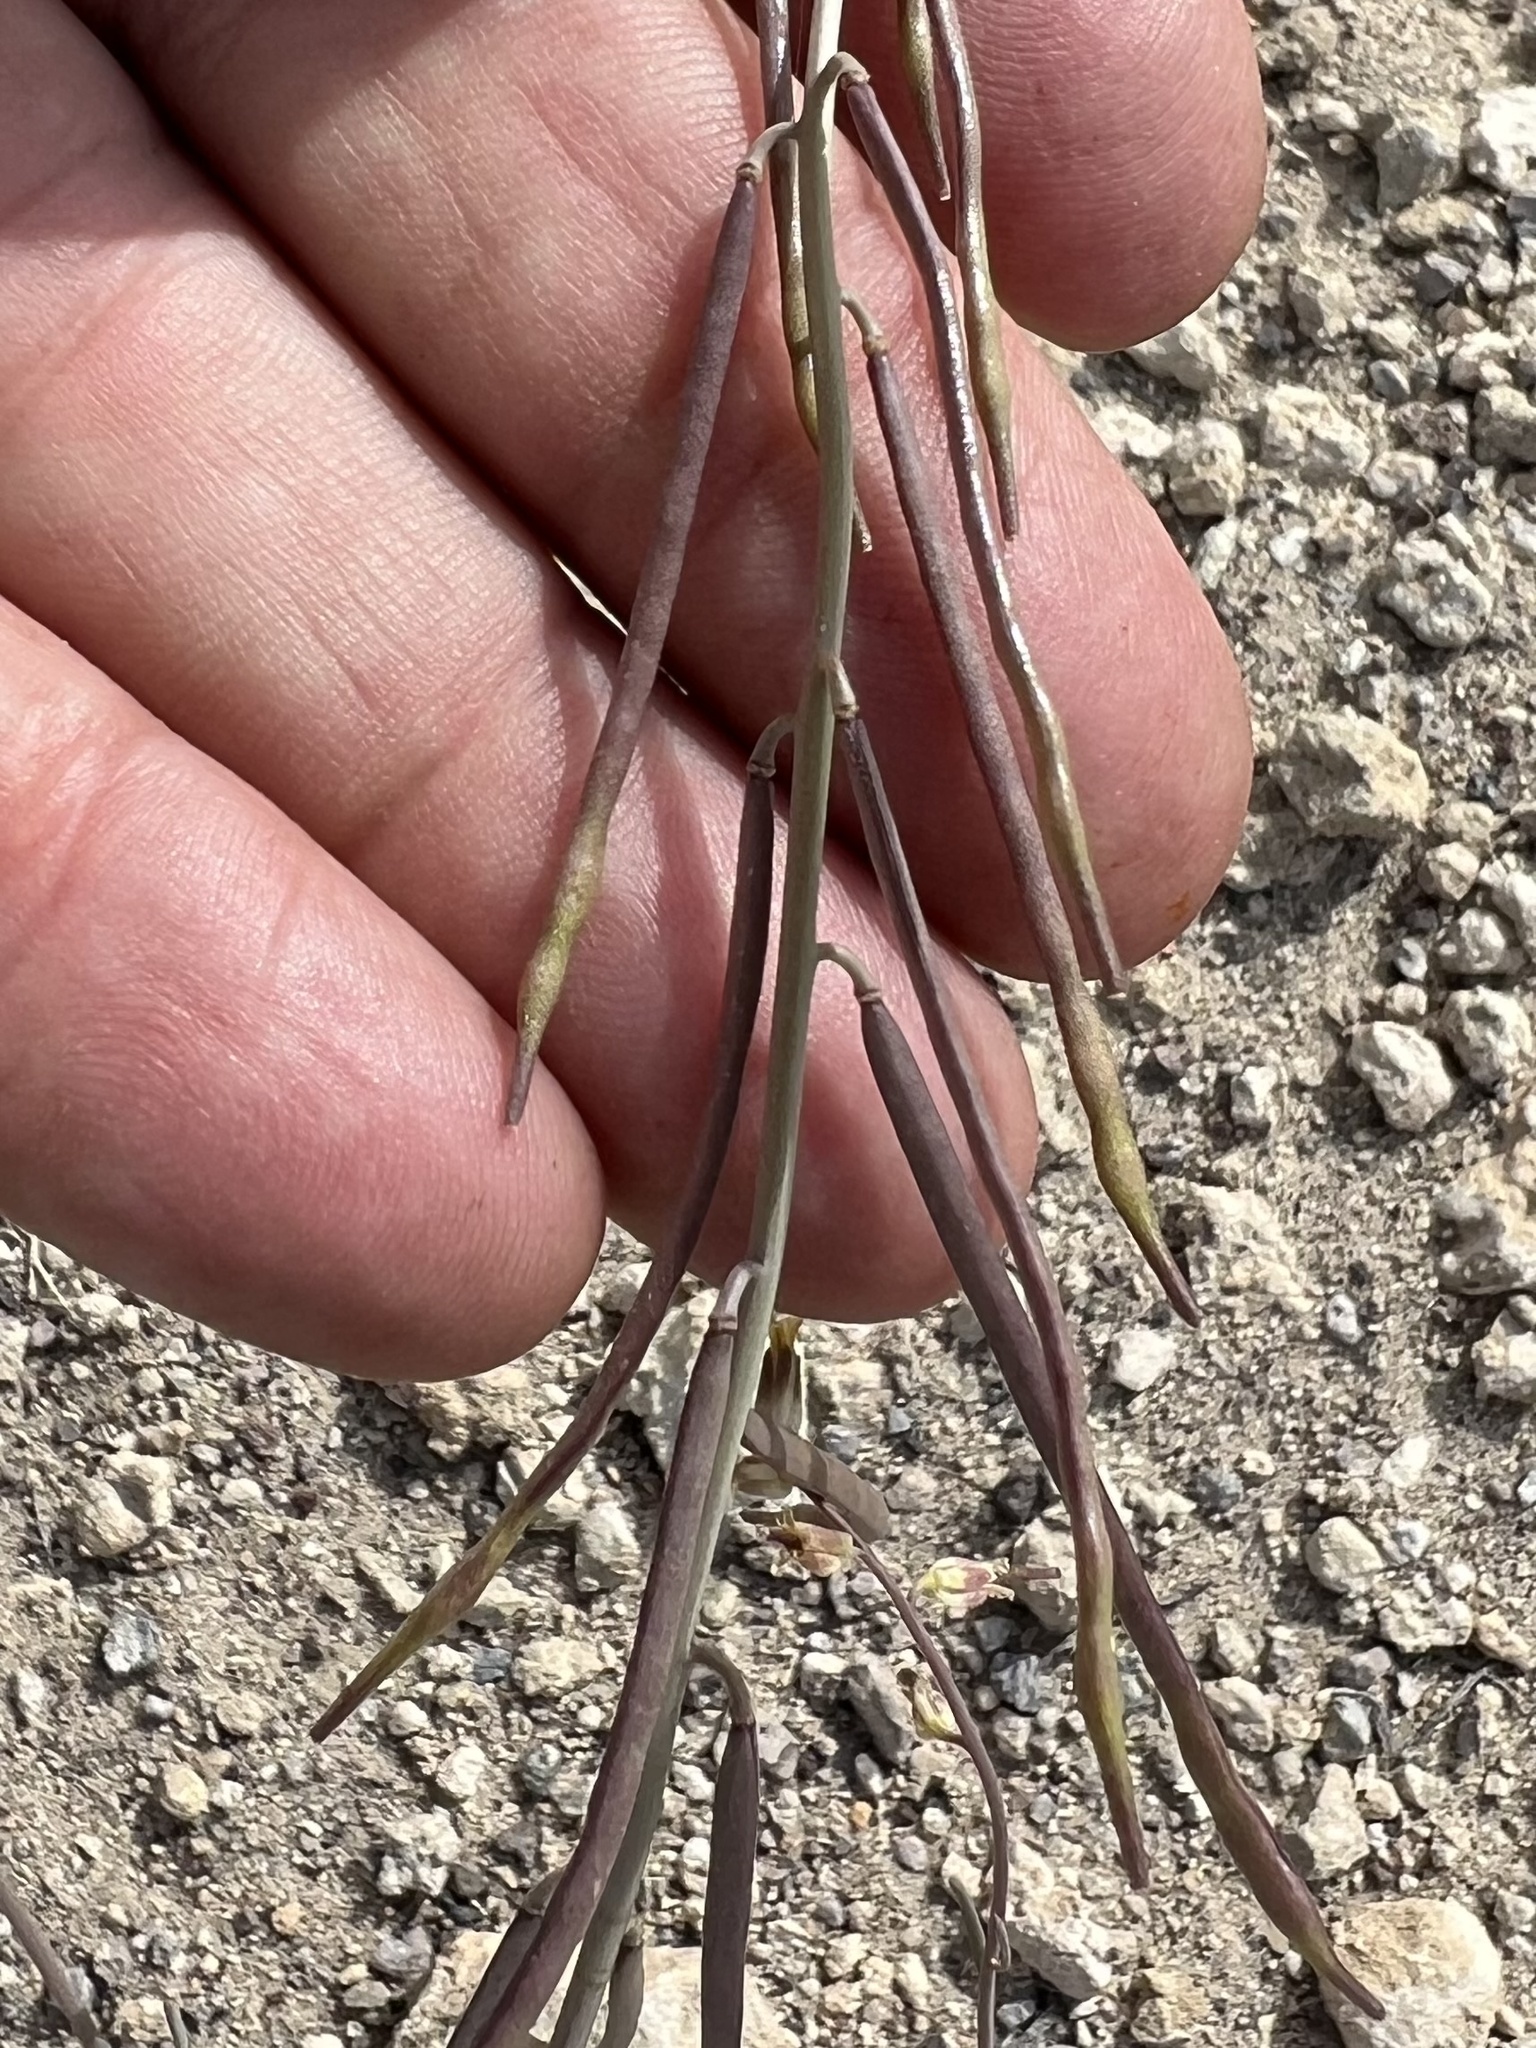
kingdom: Plantae
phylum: Tracheophyta
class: Magnoliopsida
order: Brassicales
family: Brassicaceae
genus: Streptanthus
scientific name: Streptanthus longirostris
